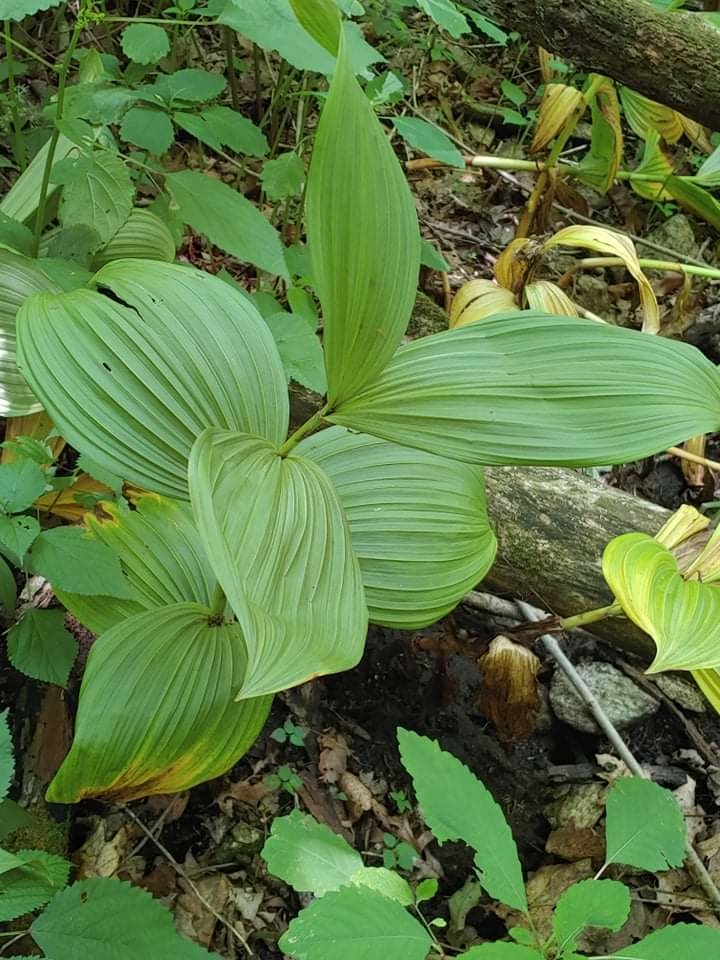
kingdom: Plantae
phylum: Tracheophyta
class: Liliopsida
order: Liliales
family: Melanthiaceae
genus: Veratrum
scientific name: Veratrum viride
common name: American false hellebore
